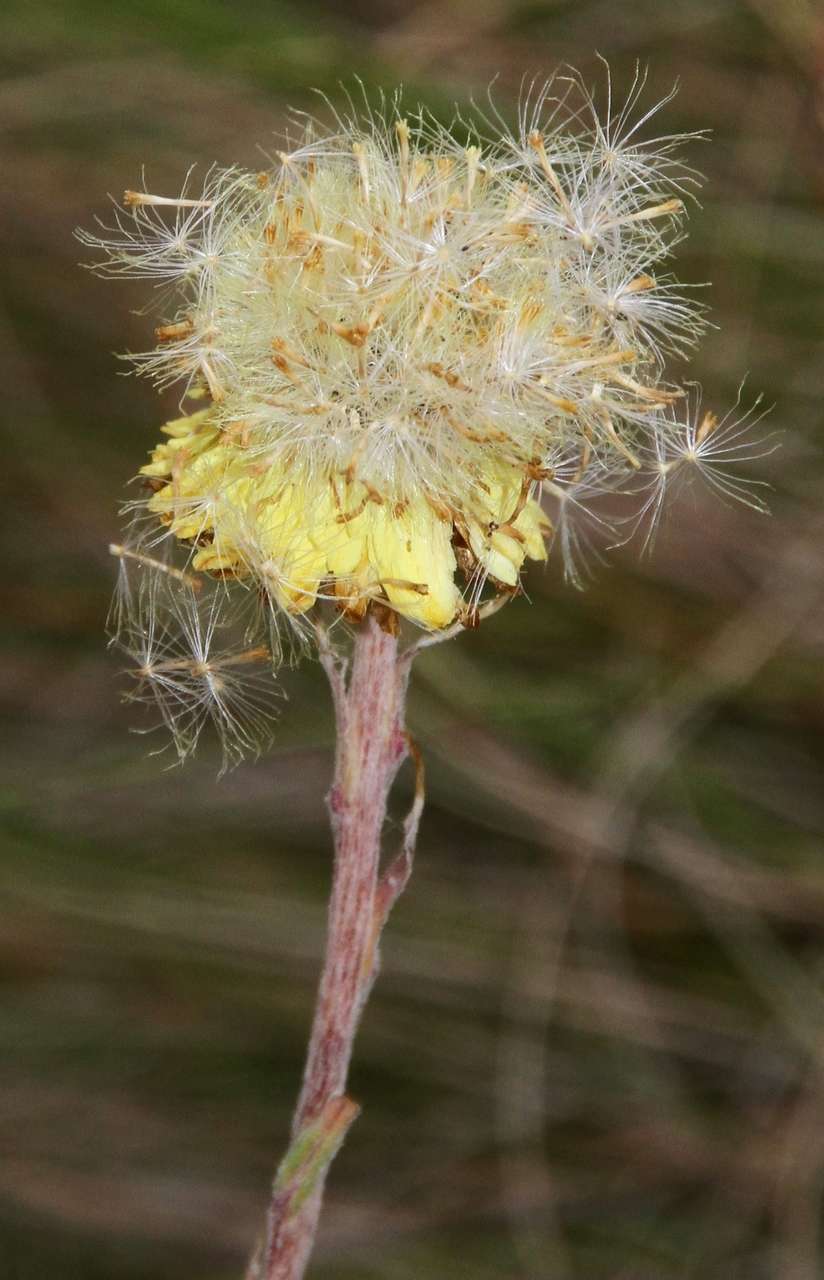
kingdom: Plantae
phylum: Tracheophyta
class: Magnoliopsida
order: Asterales
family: Asteraceae
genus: Coronidium
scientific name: Coronidium scorpioides
